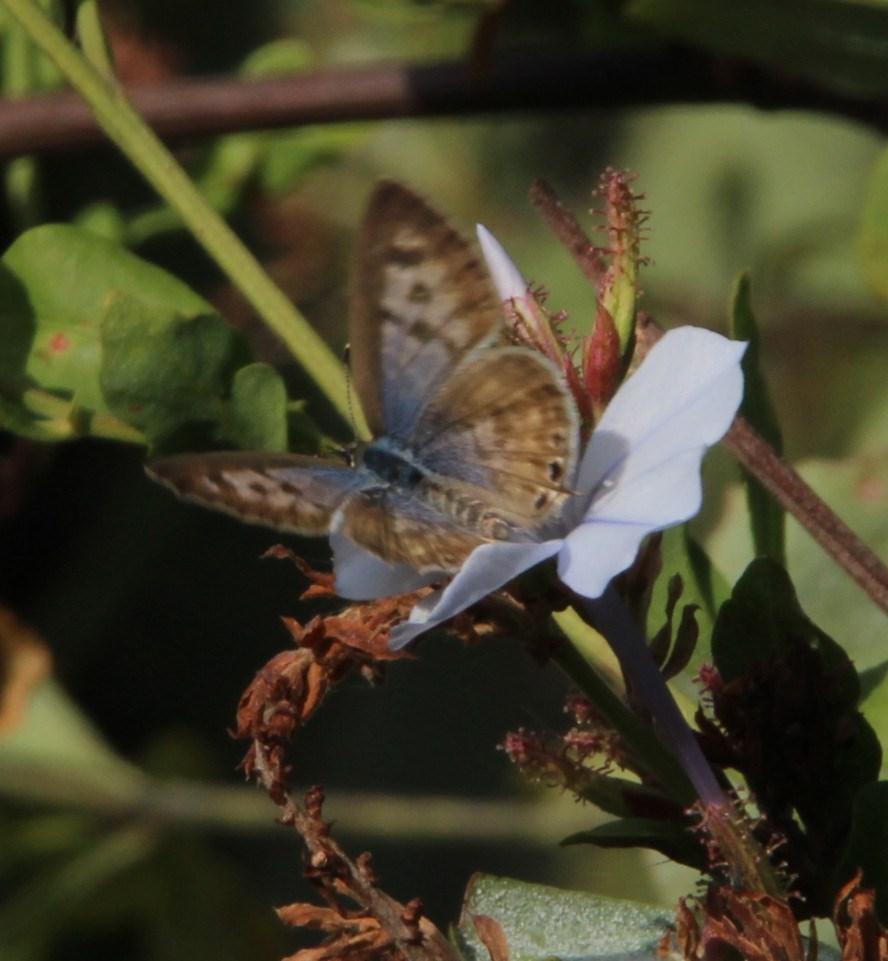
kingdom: Animalia
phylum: Arthropoda
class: Insecta
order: Lepidoptera
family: Lycaenidae
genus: Leptotes
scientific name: Leptotes
